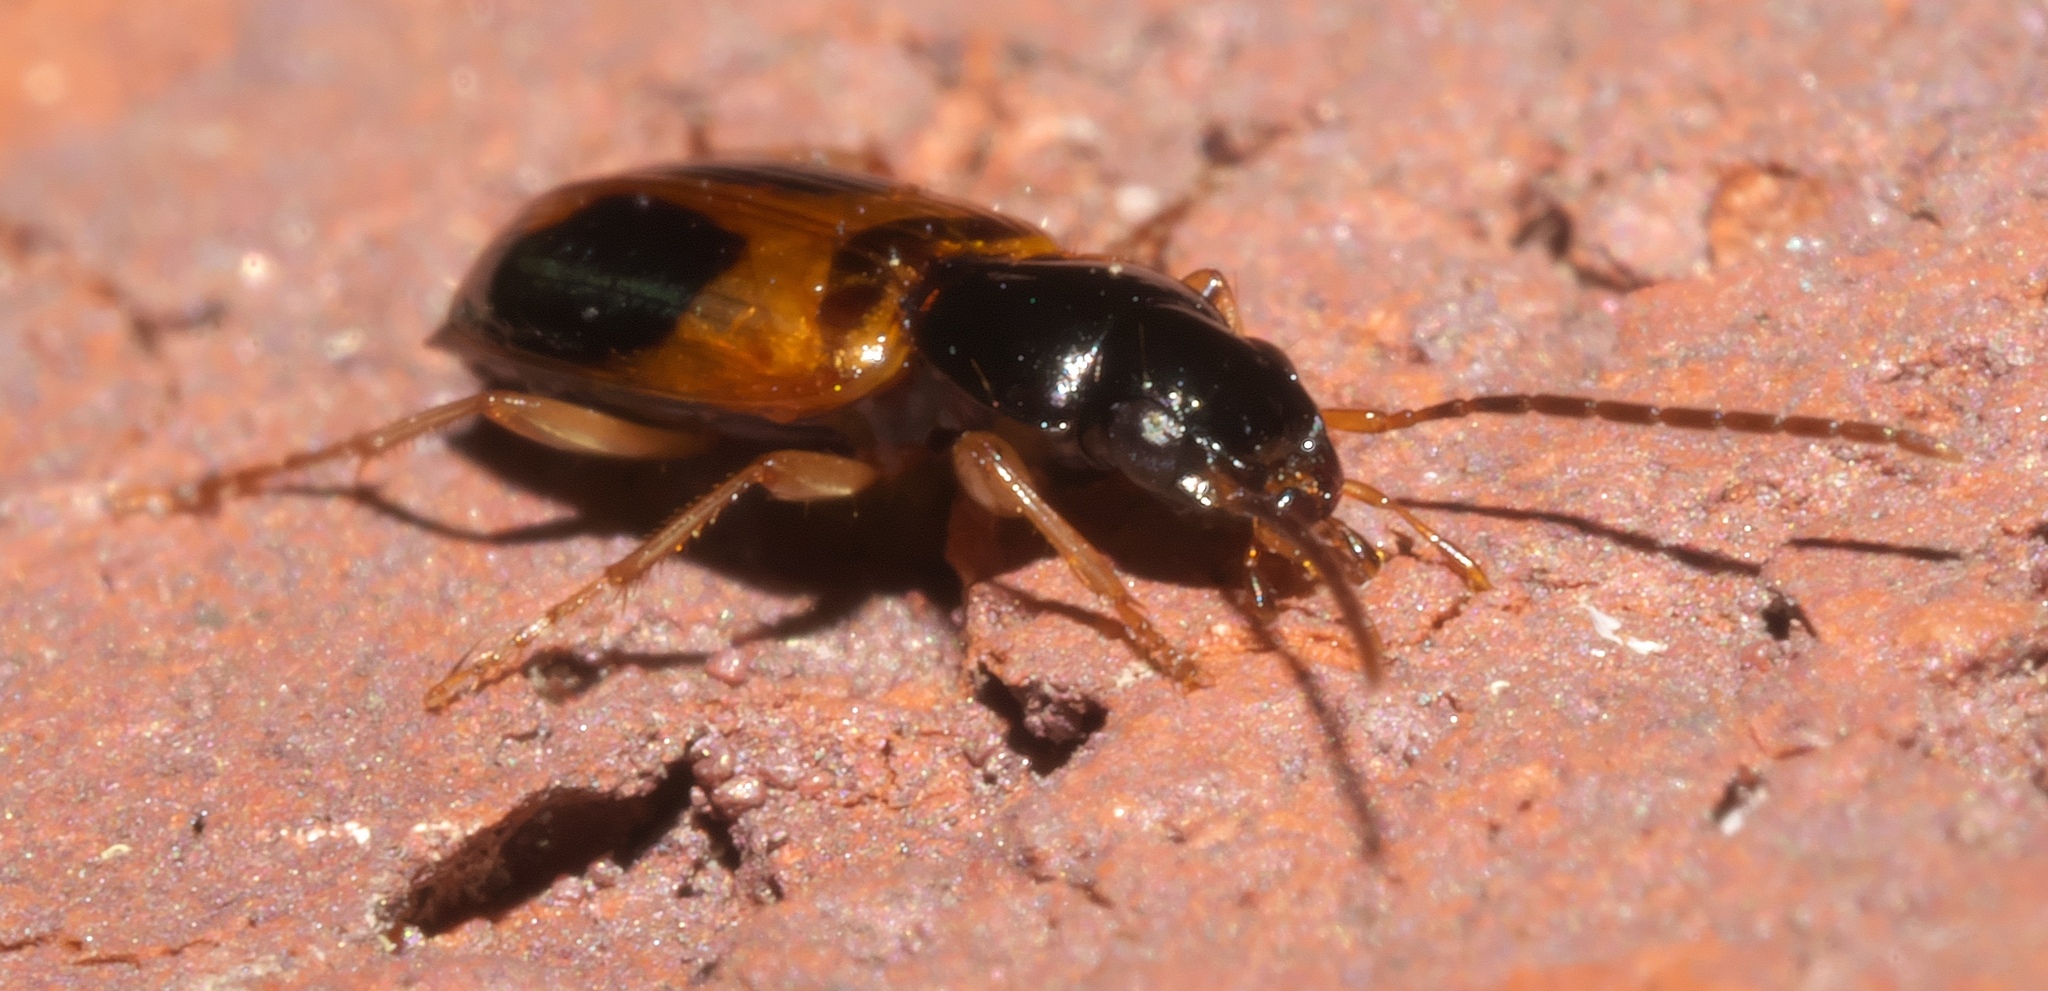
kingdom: Animalia
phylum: Arthropoda
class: Insecta
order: Coleoptera
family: Carabidae
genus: Badister
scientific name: Badister elegans
